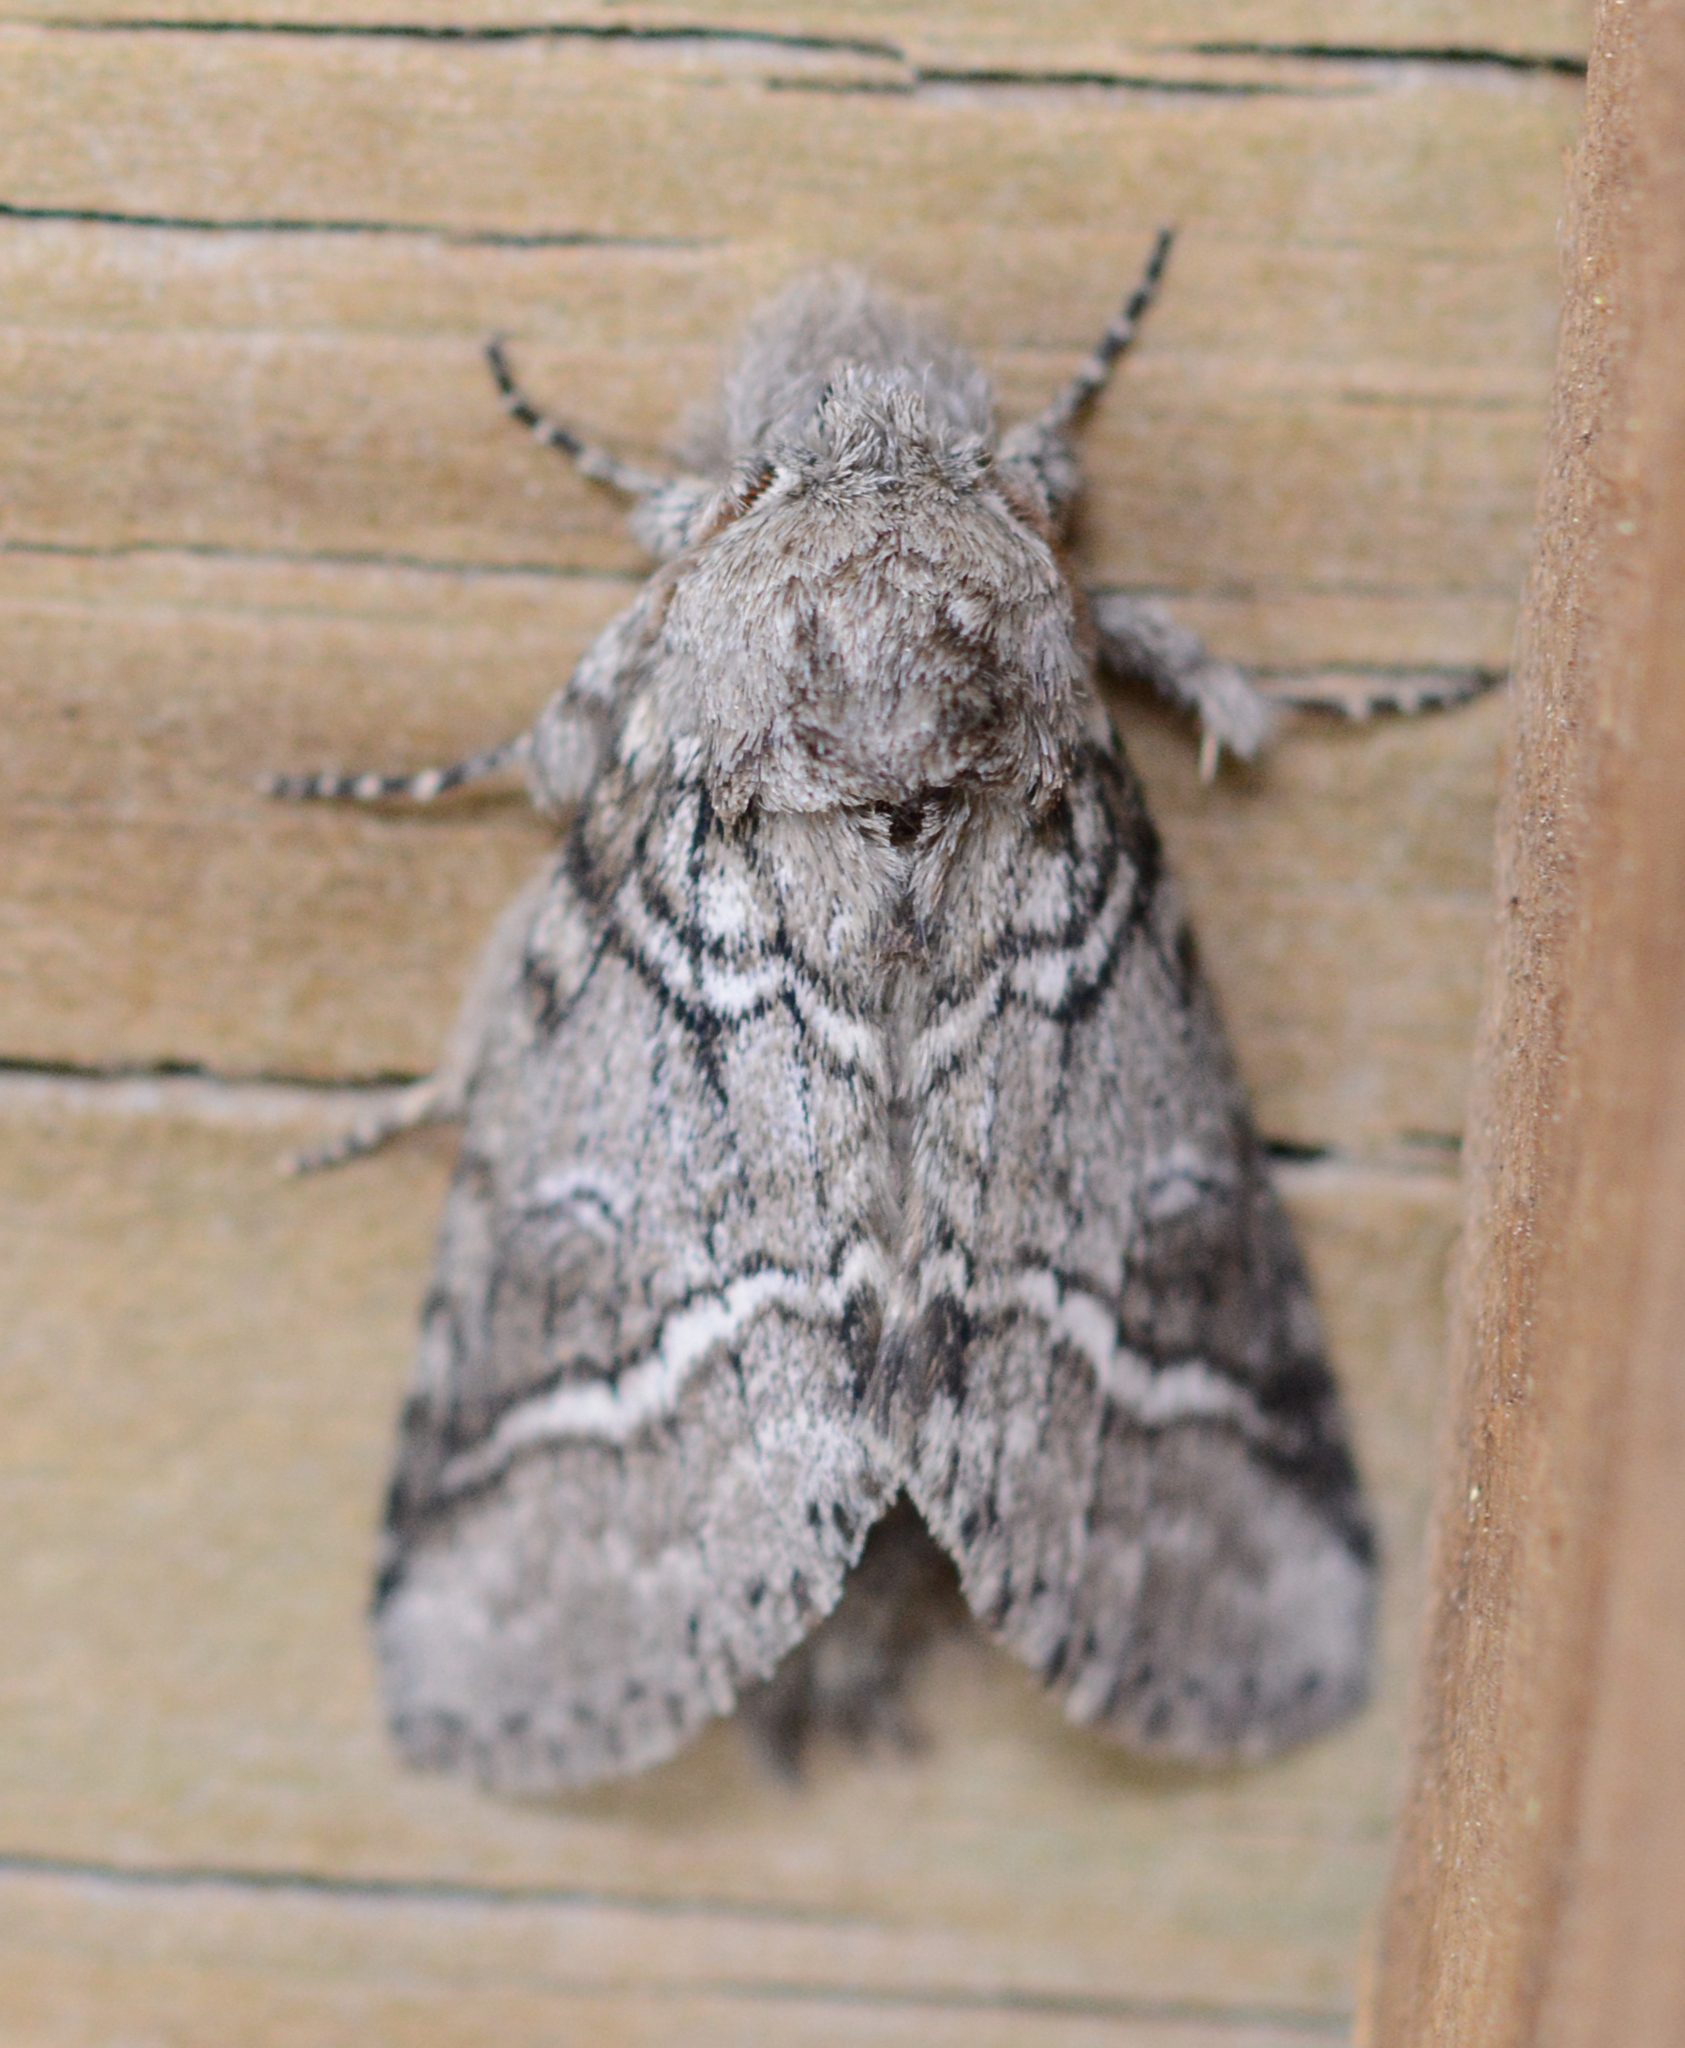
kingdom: Animalia
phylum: Arthropoda
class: Insecta
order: Lepidoptera
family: Notodontidae
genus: Lochmaeus
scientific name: Lochmaeus bilineata
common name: Double-lined prominent
